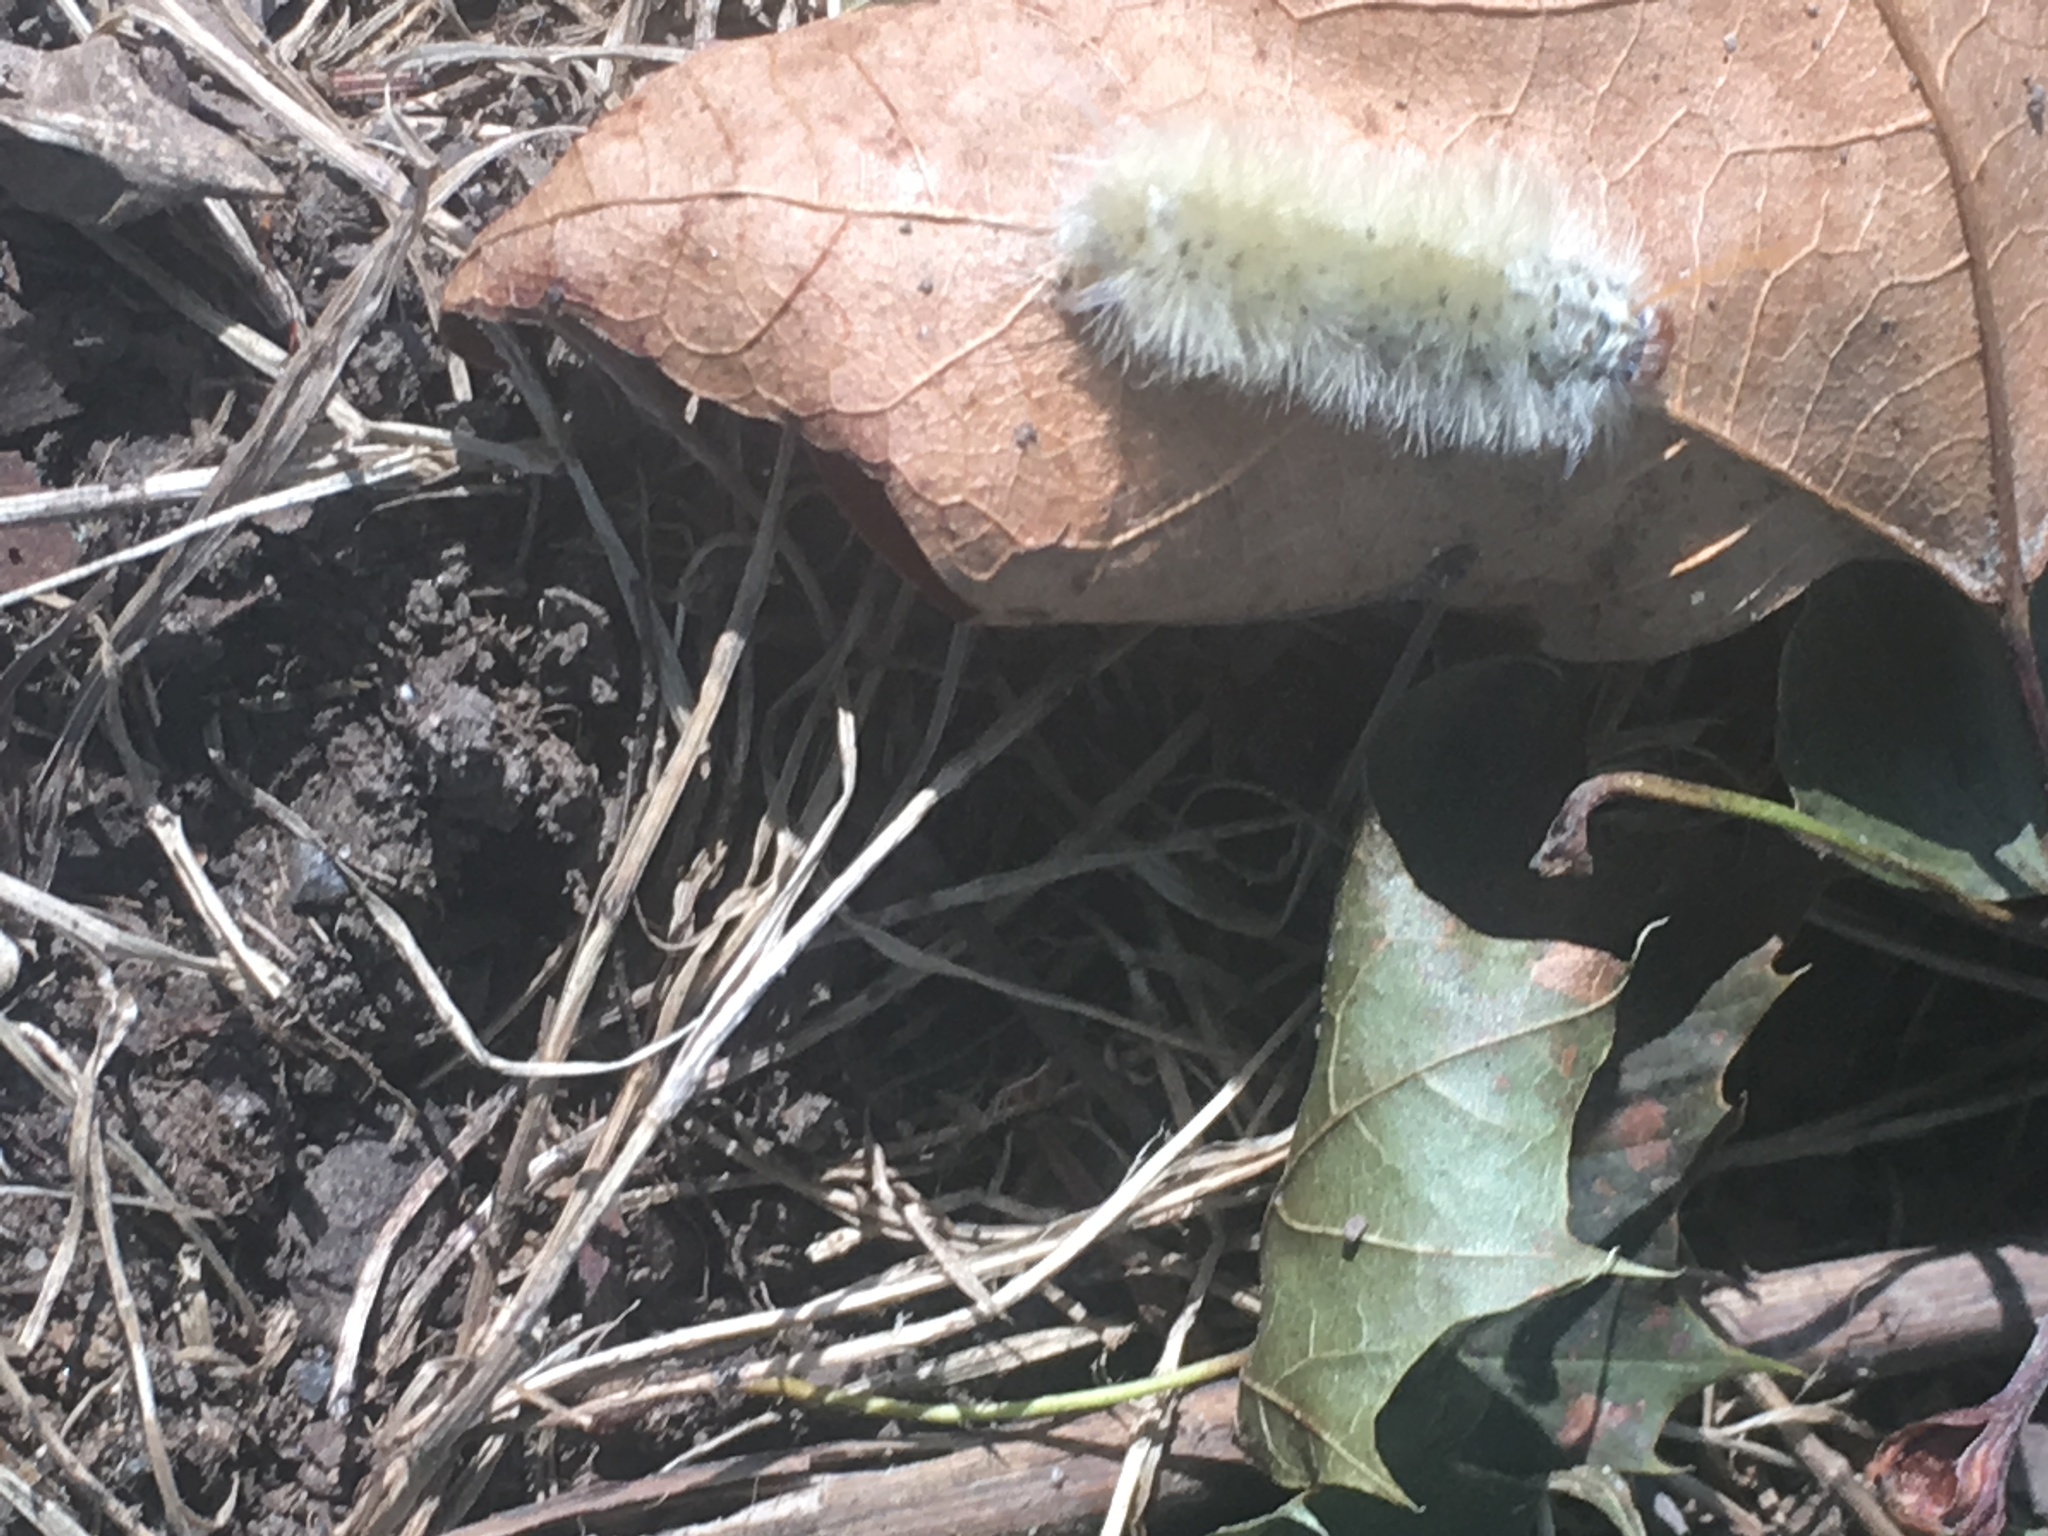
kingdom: Animalia
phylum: Arthropoda
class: Insecta
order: Lepidoptera
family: Erebidae
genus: Halysidota
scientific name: Halysidota harrisii
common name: Sycamore tussock moth
